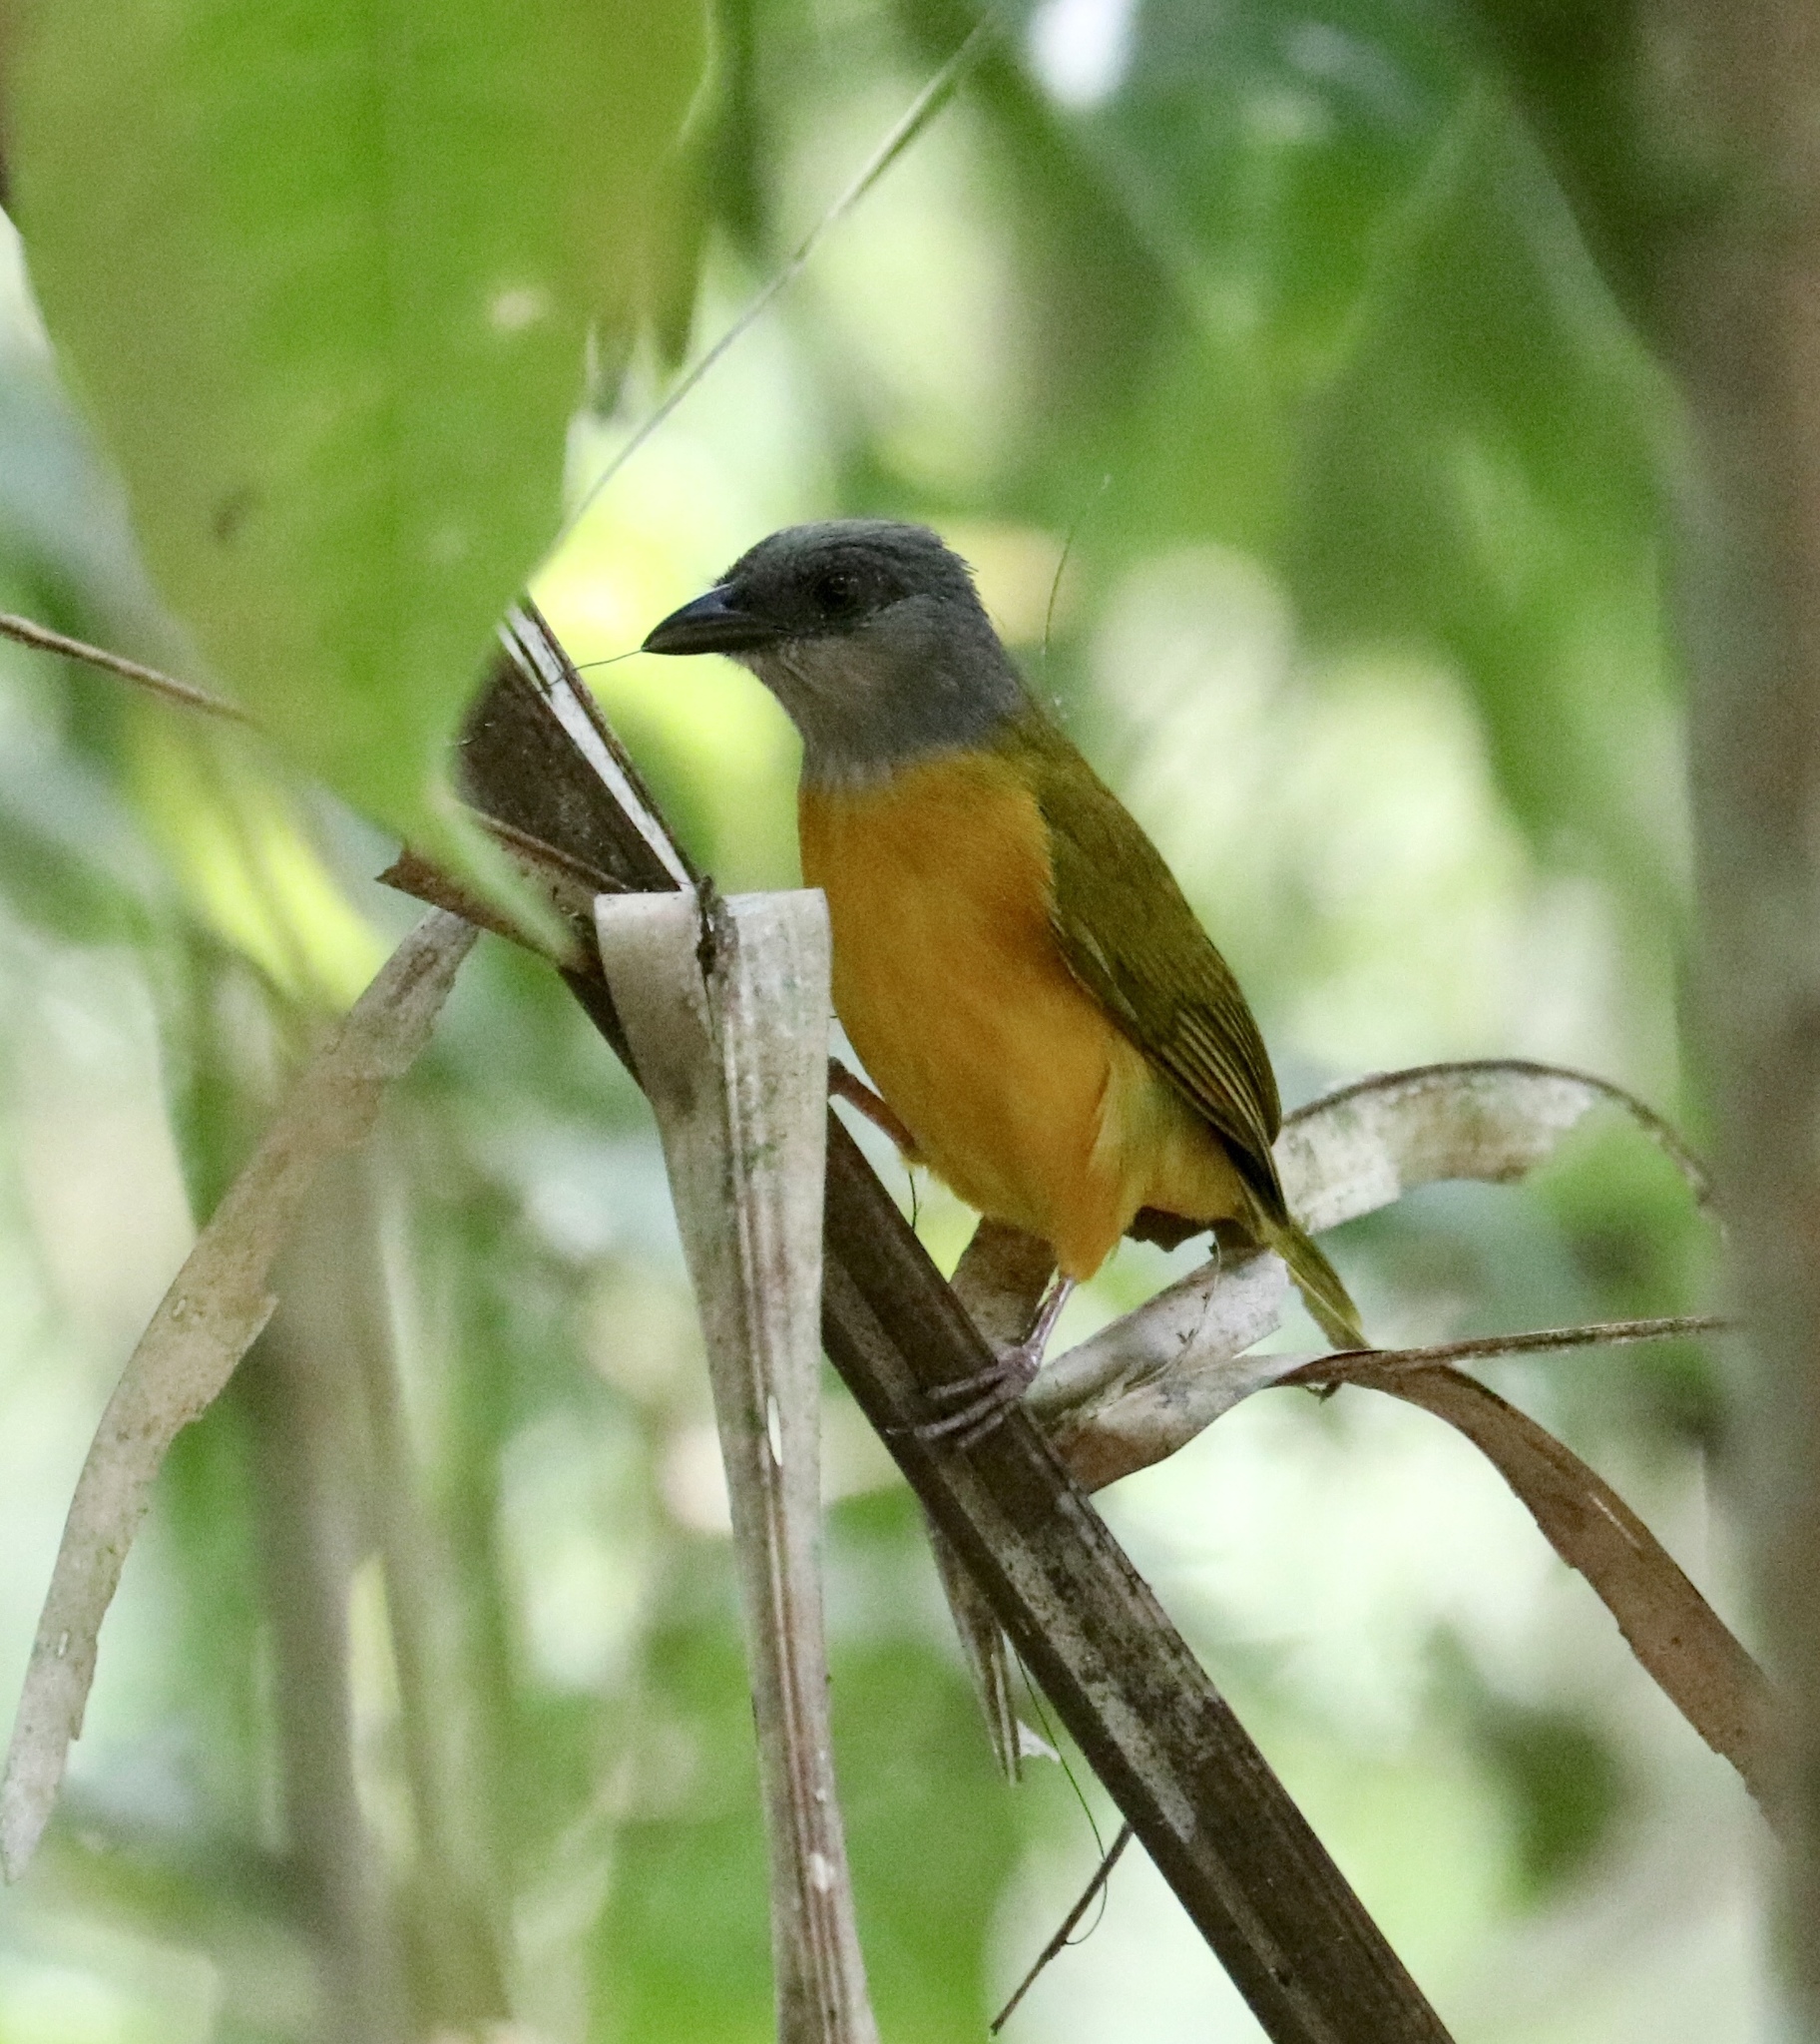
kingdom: Animalia
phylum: Chordata
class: Aves
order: Passeriformes
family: Thraupidae
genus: Eucometis
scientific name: Eucometis penicillata
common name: Grey-headed tanager
